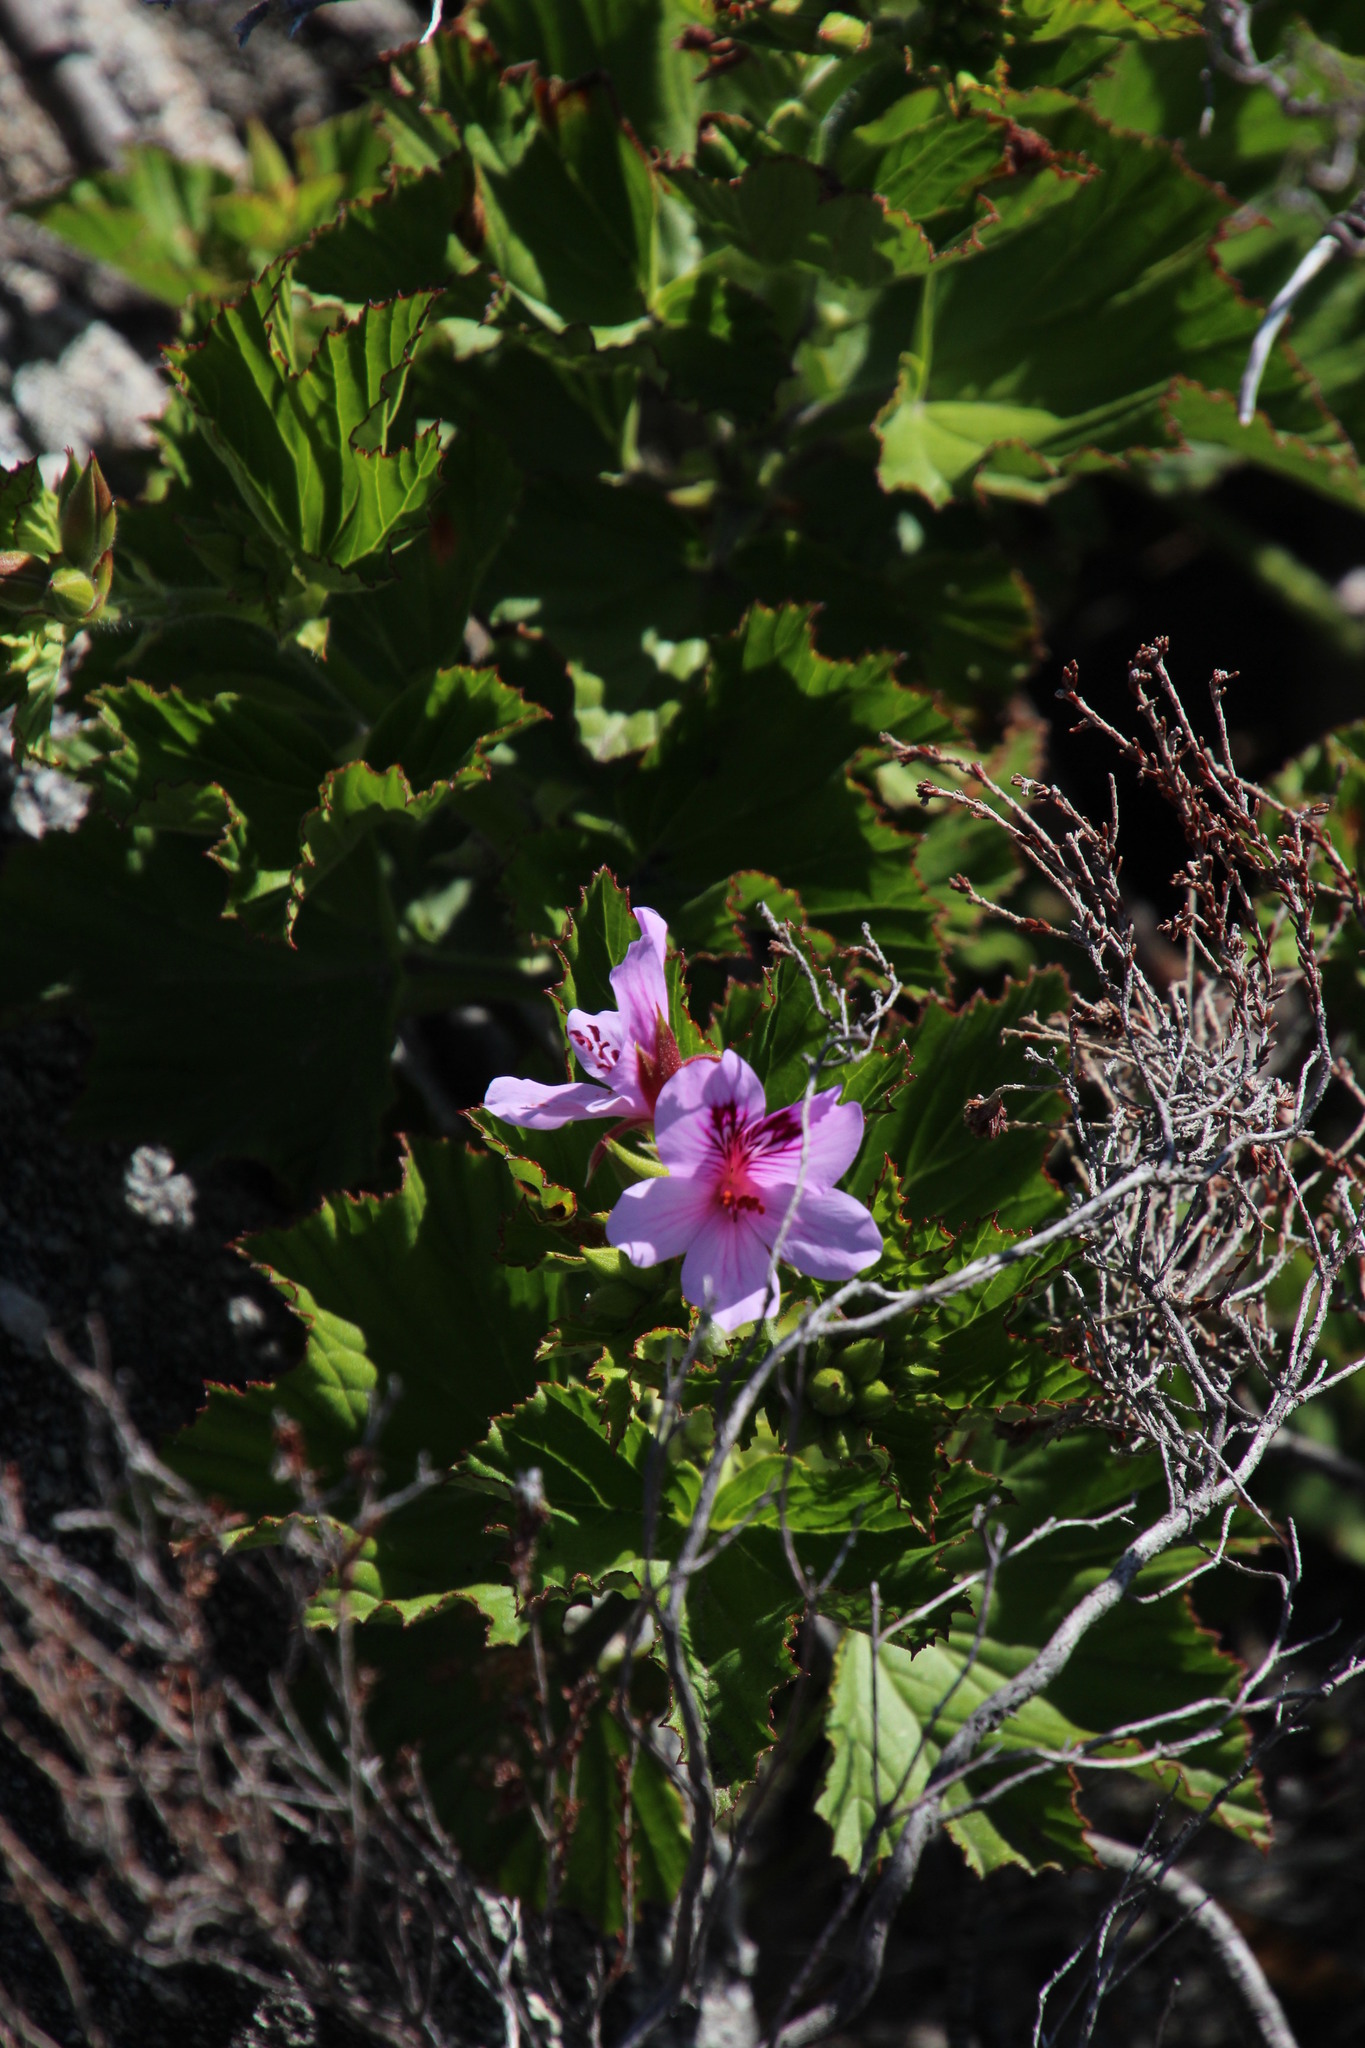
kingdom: Plantae
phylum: Tracheophyta
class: Magnoliopsida
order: Geraniales
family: Geraniaceae
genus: Pelargonium
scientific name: Pelargonium cucullatum
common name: Tree pelargonium
